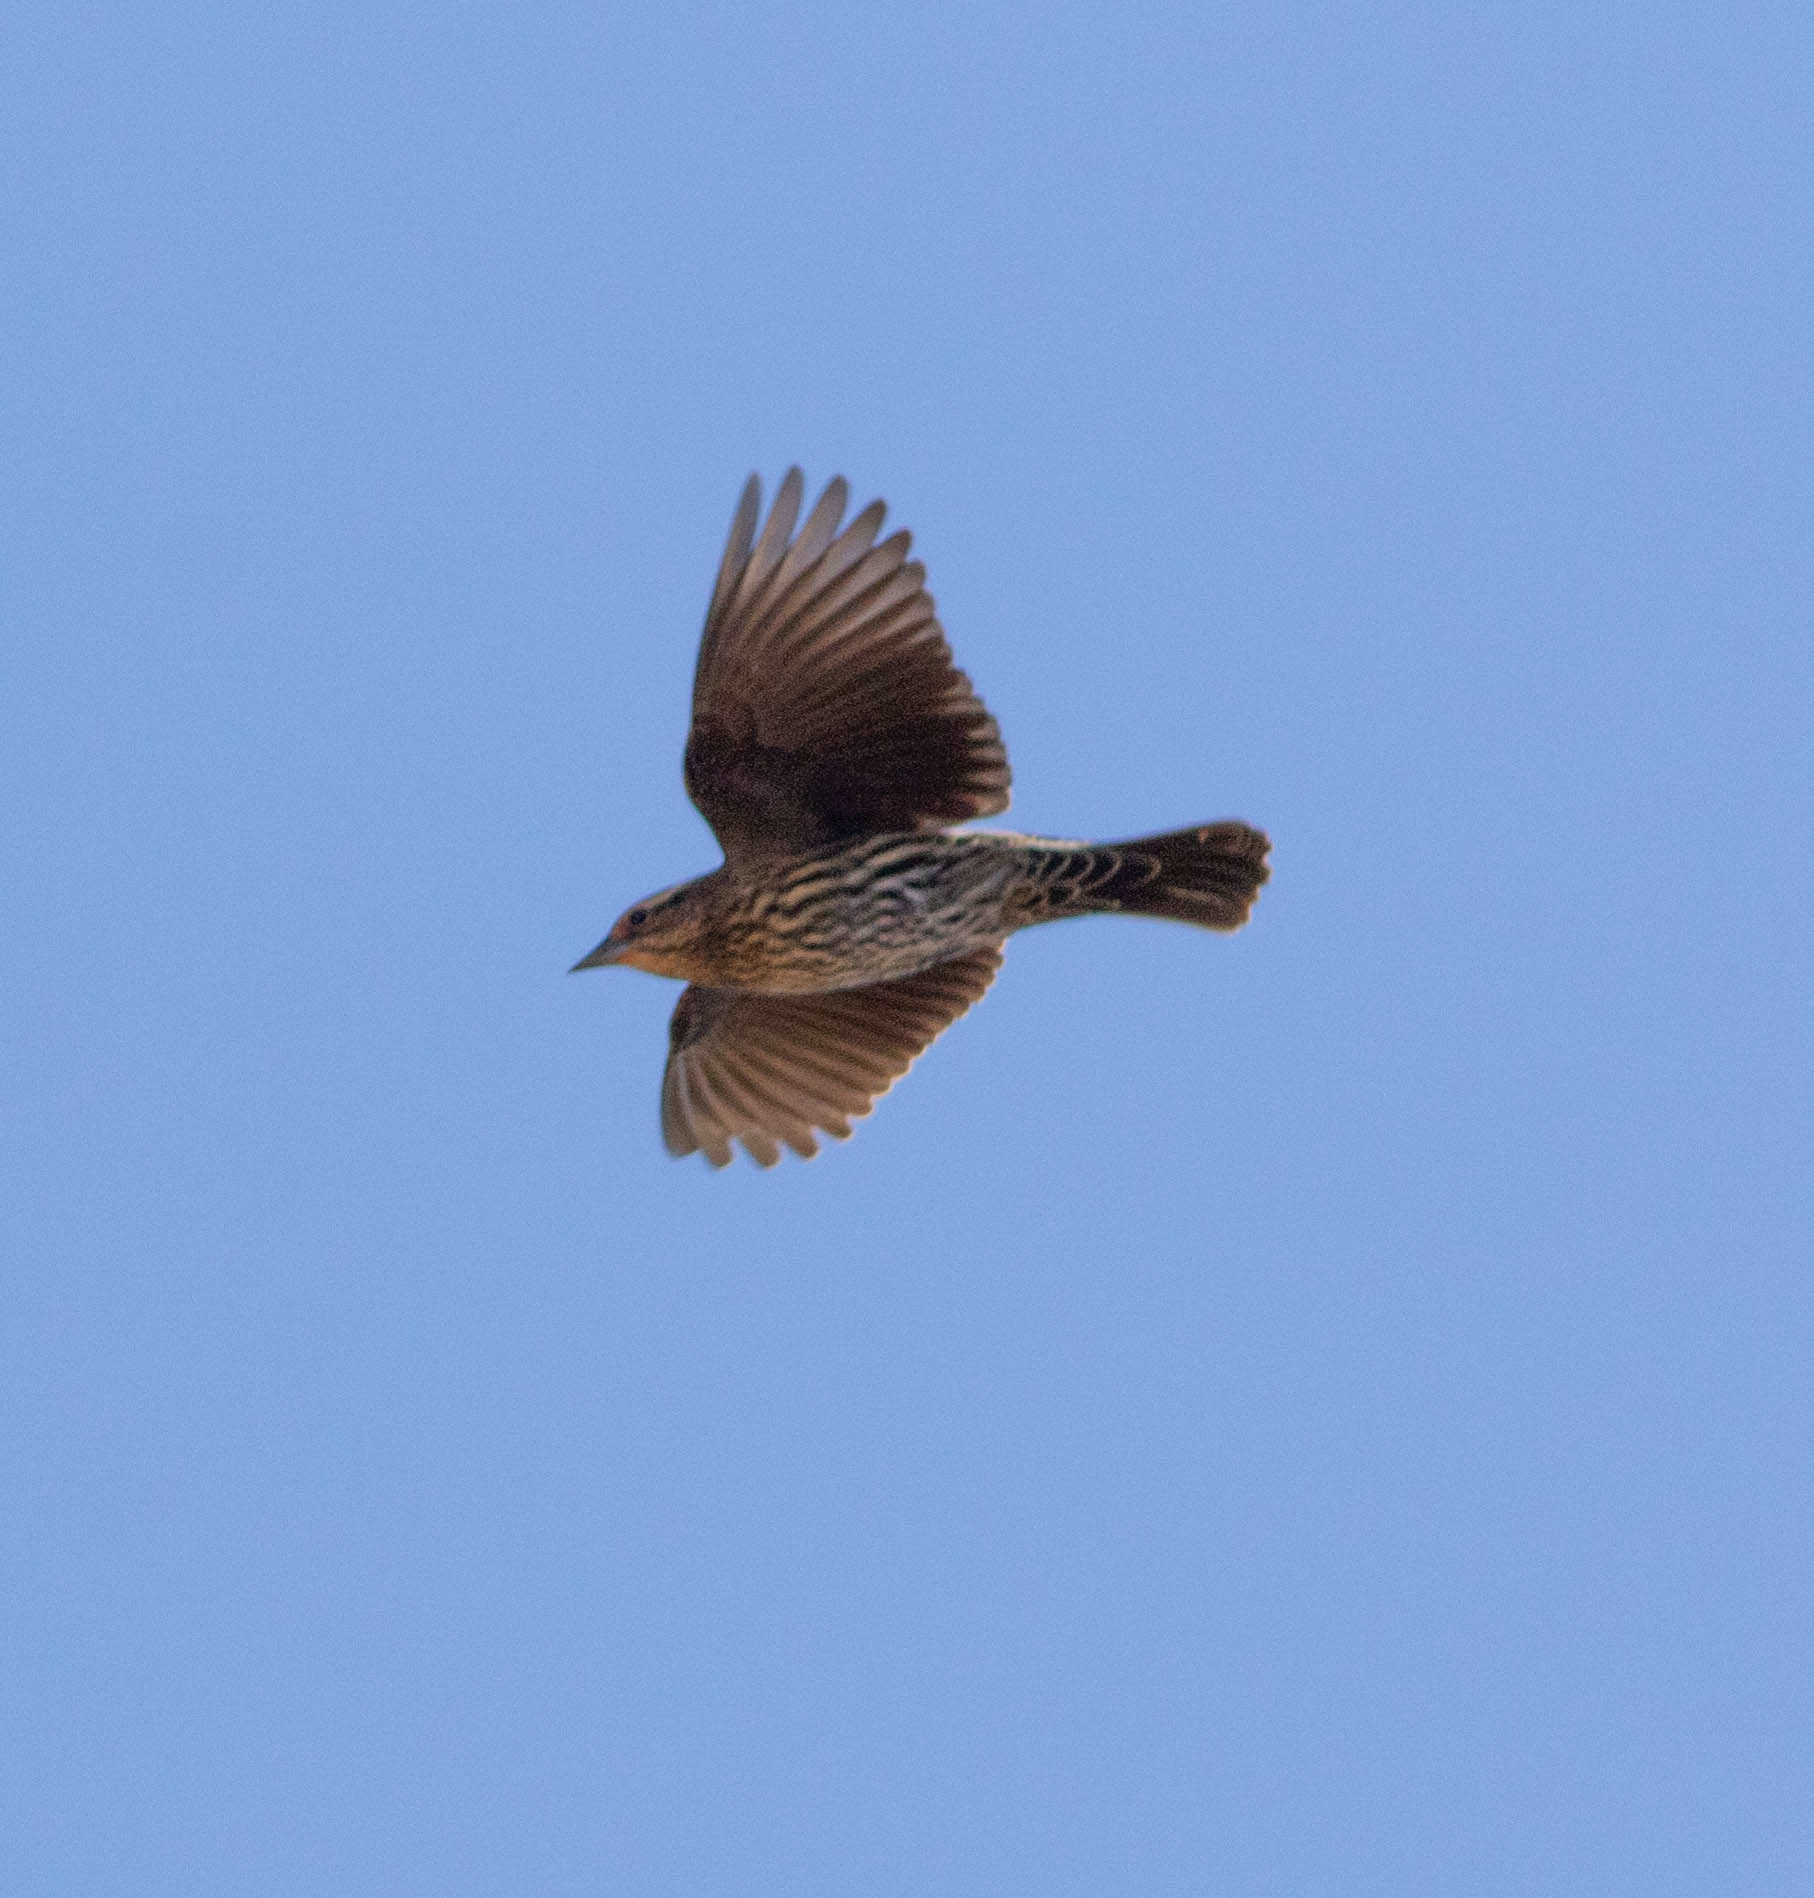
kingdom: Animalia
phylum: Chordata
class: Aves
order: Passeriformes
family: Icteridae
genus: Agelaius
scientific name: Agelaius phoeniceus
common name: Red-winged blackbird
